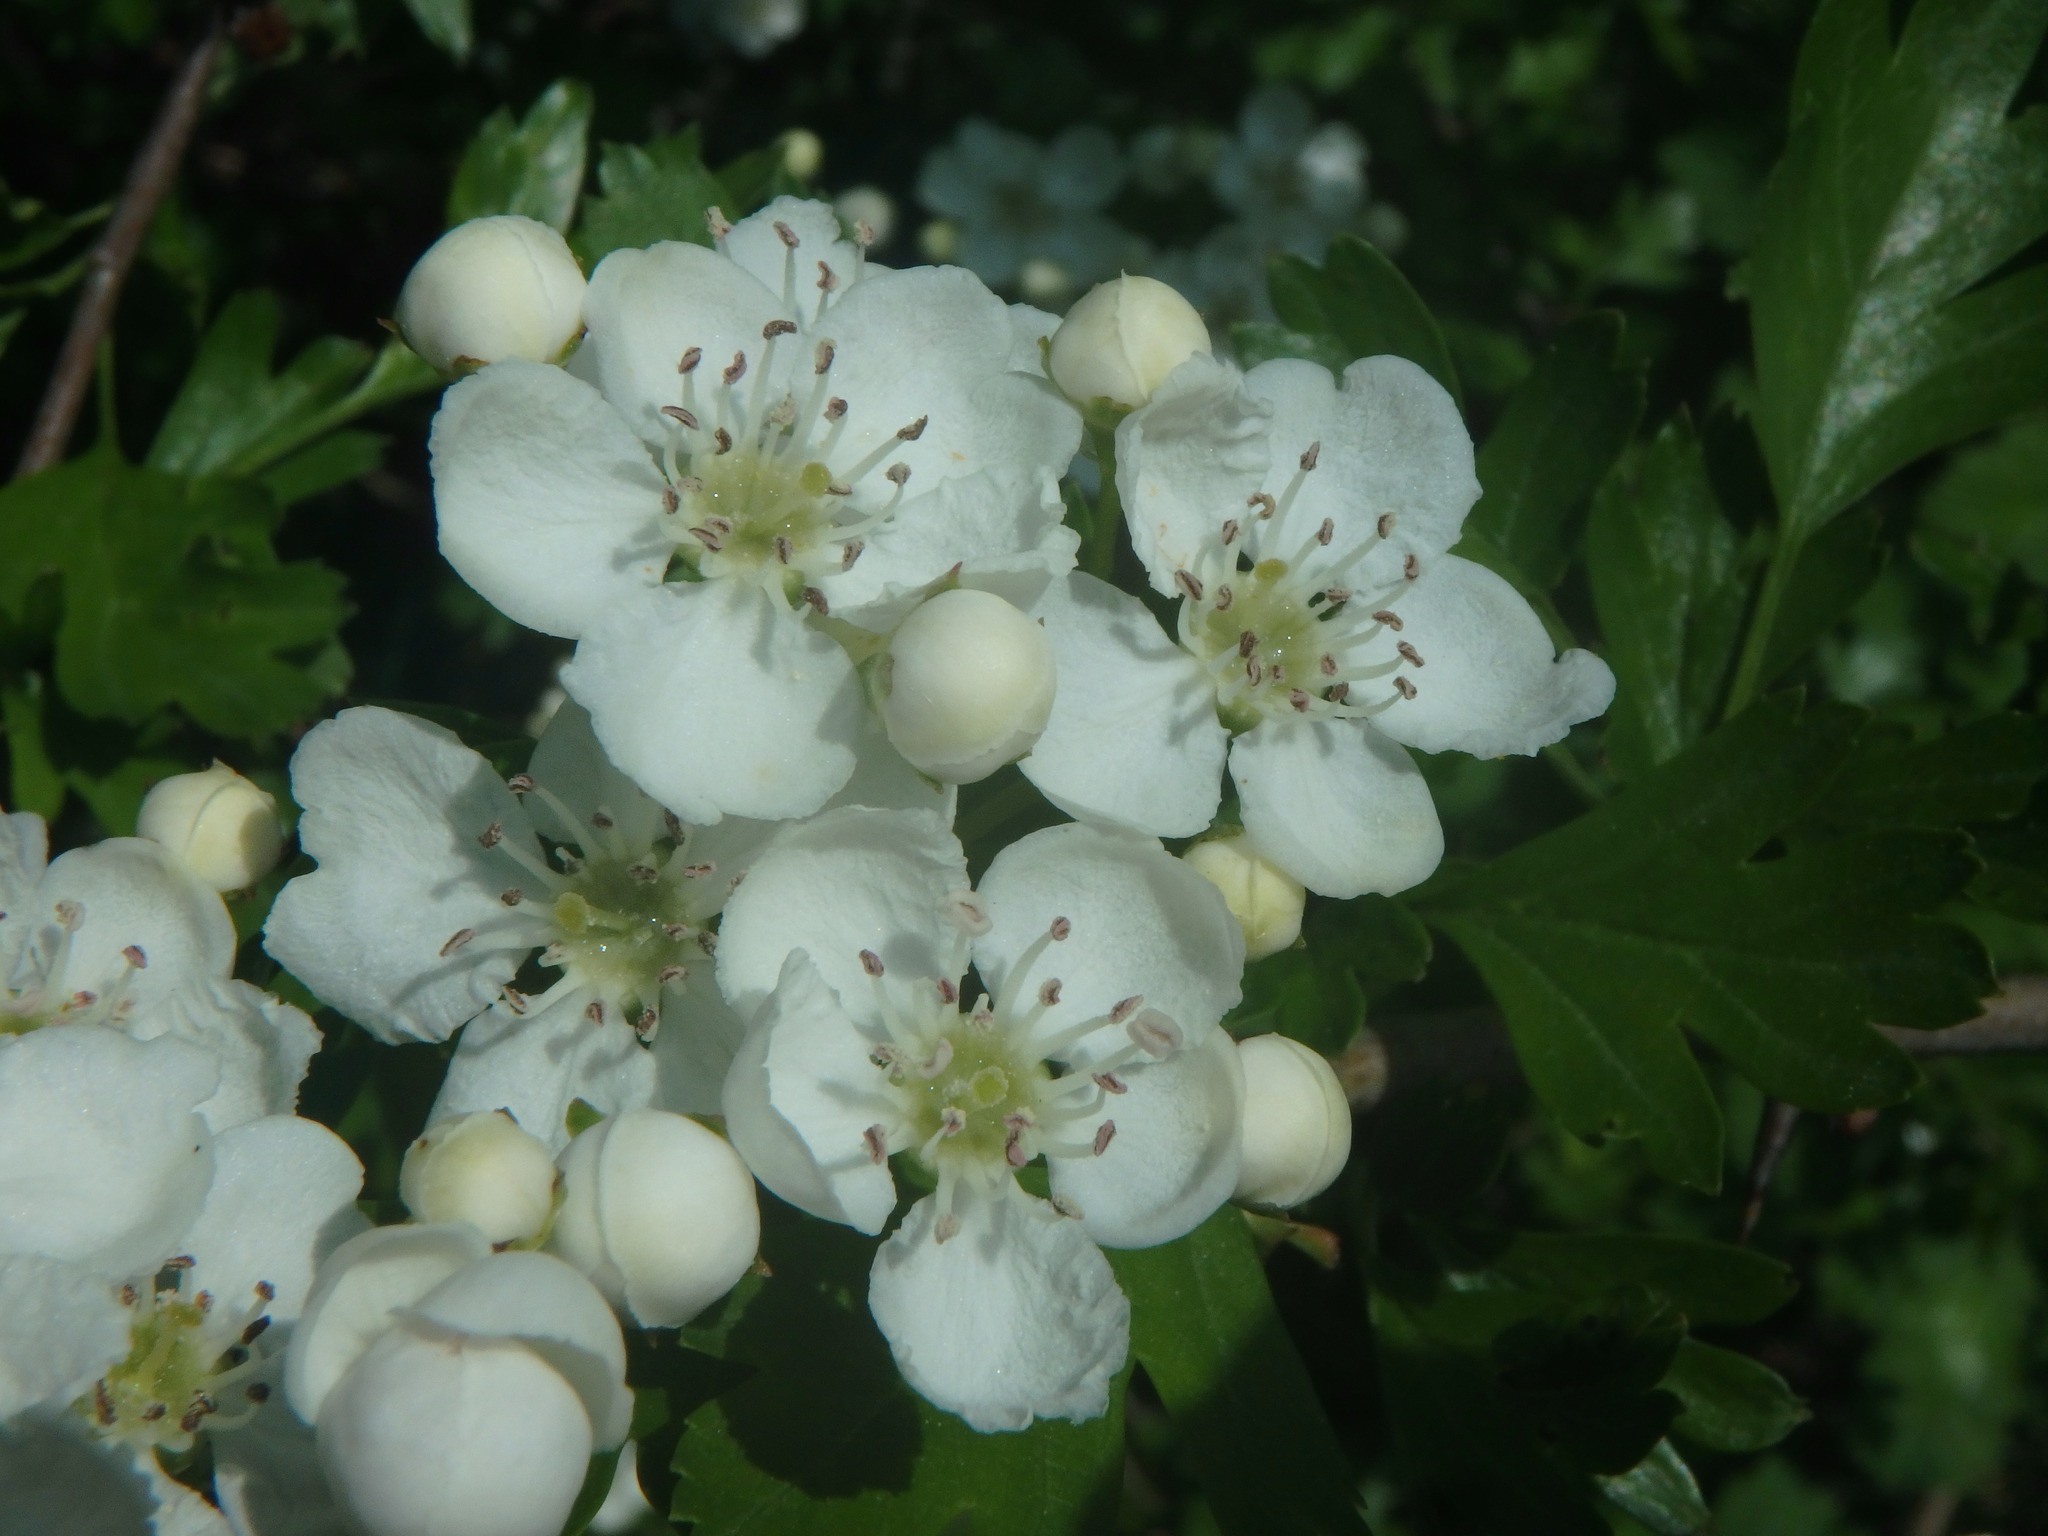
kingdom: Plantae
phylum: Tracheophyta
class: Magnoliopsida
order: Rosales
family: Rosaceae
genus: Crataegus
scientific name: Crataegus monogyna
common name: Hawthorn
